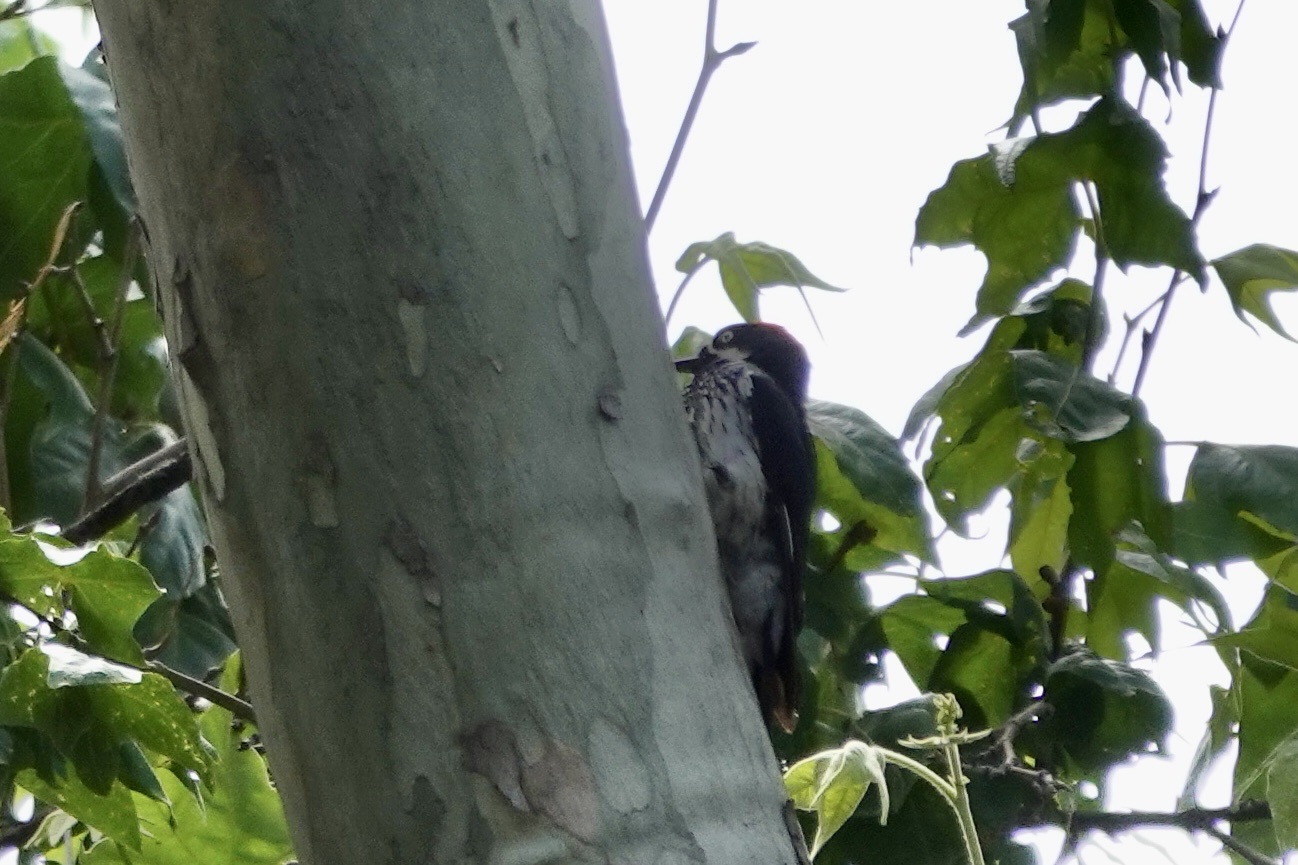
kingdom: Animalia
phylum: Chordata
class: Aves
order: Piciformes
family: Picidae
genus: Melanerpes
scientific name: Melanerpes formicivorus
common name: Acorn woodpecker
